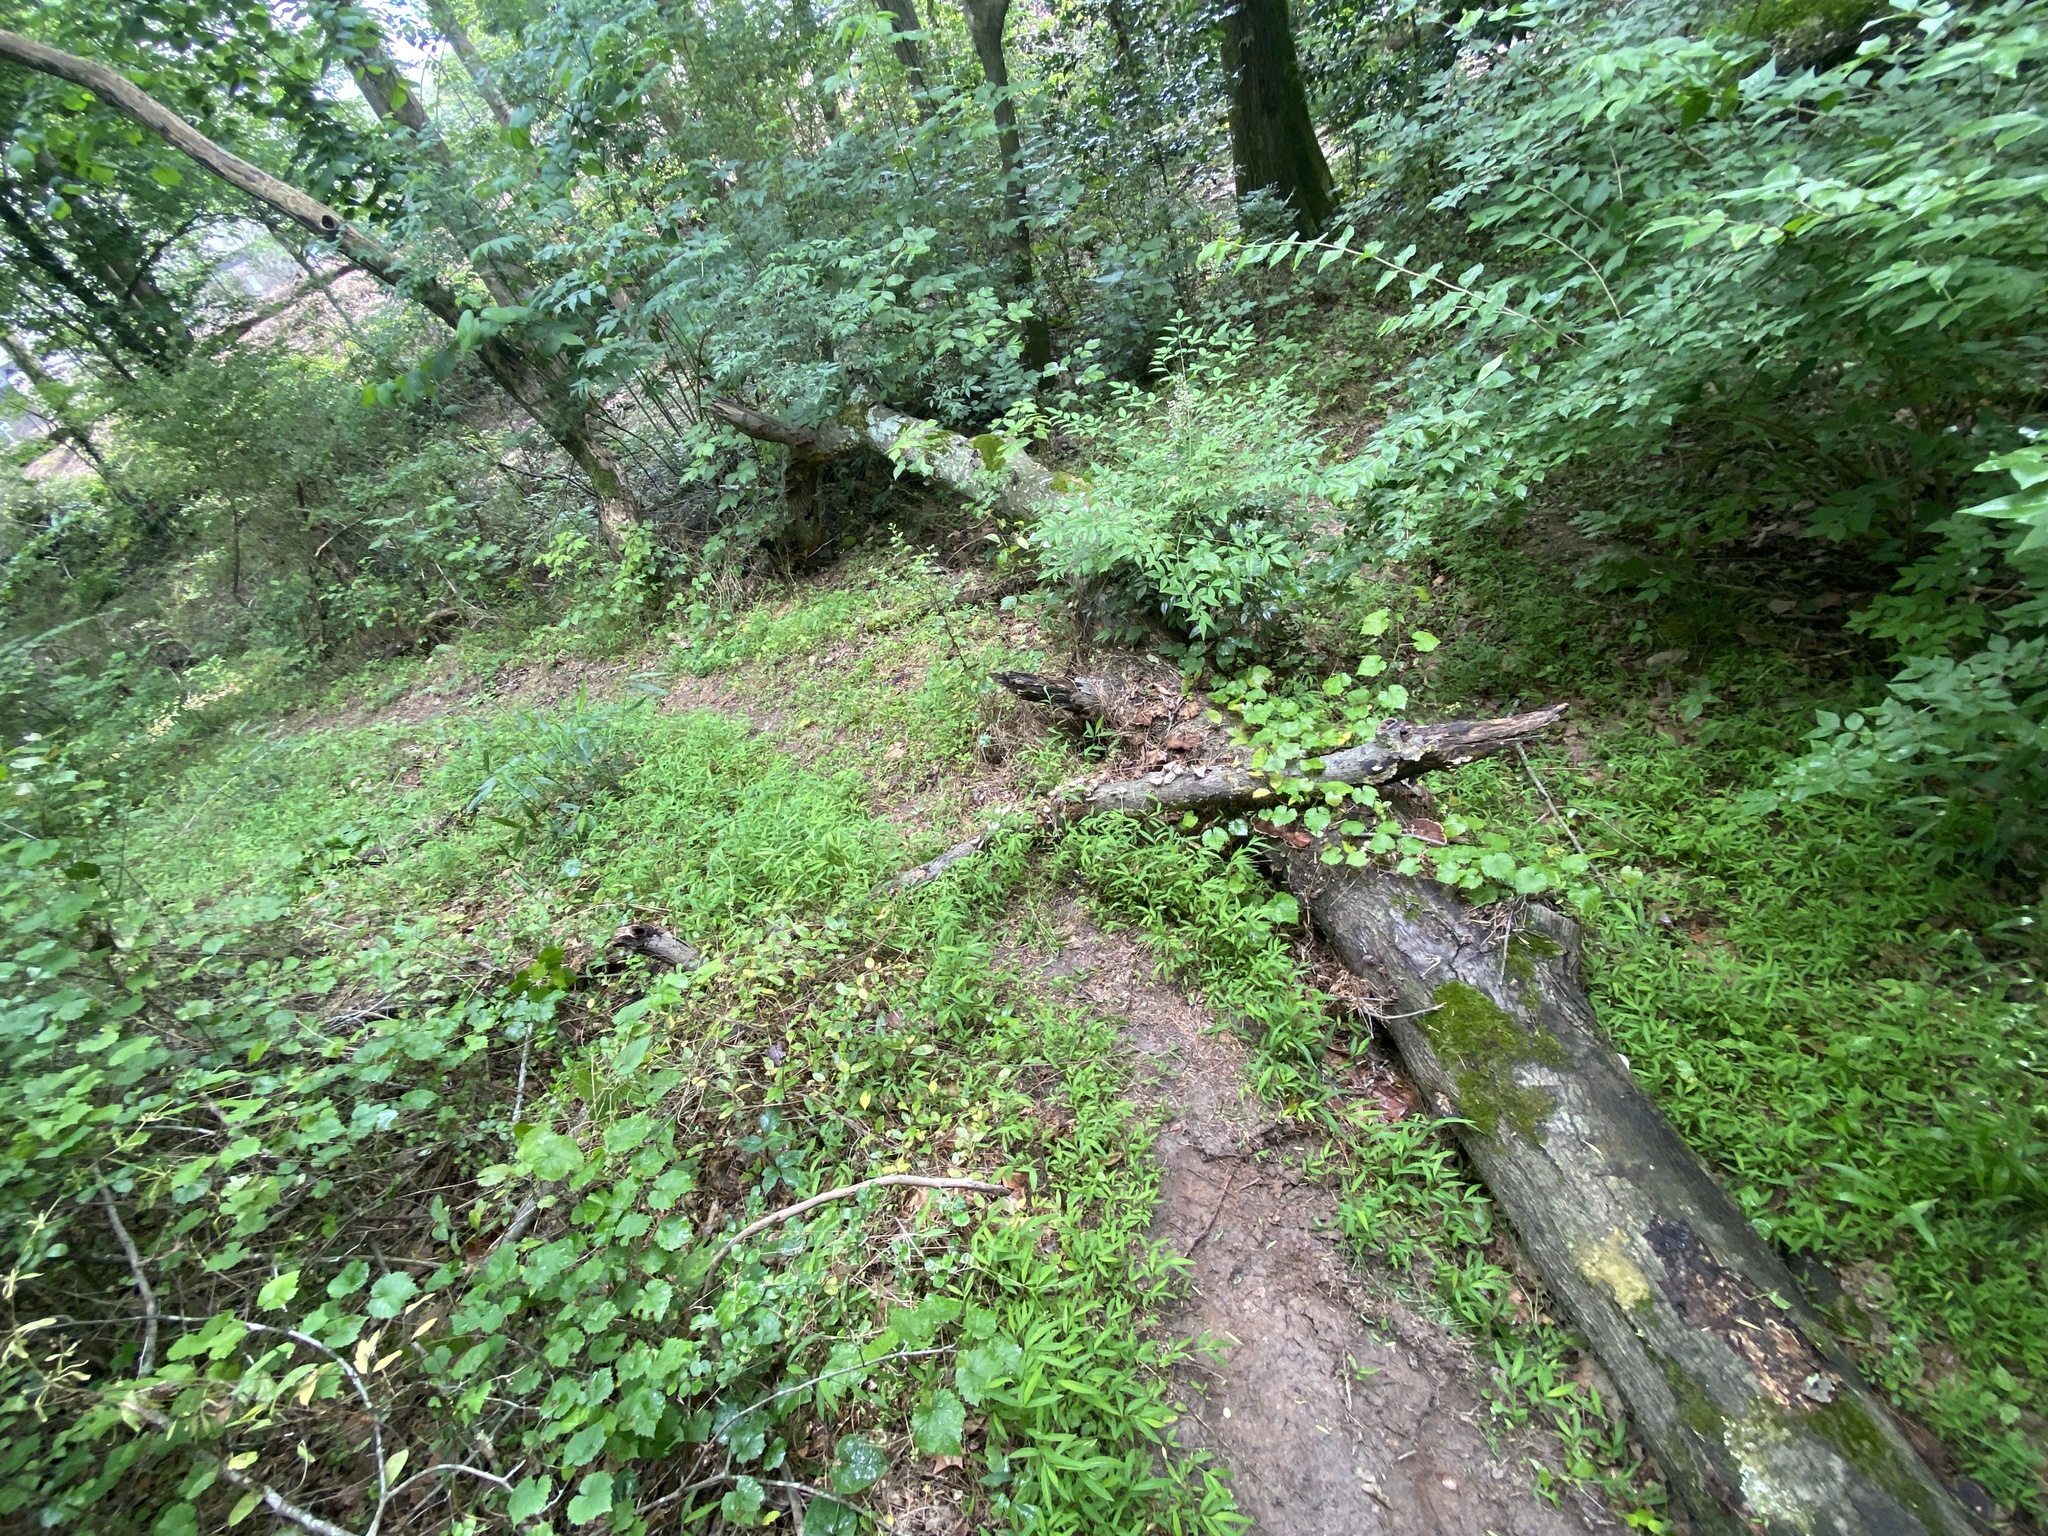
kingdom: Plantae
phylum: Tracheophyta
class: Liliopsida
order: Poales
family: Poaceae
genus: Microstegium
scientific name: Microstegium vimineum
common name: Japanese stiltgrass
